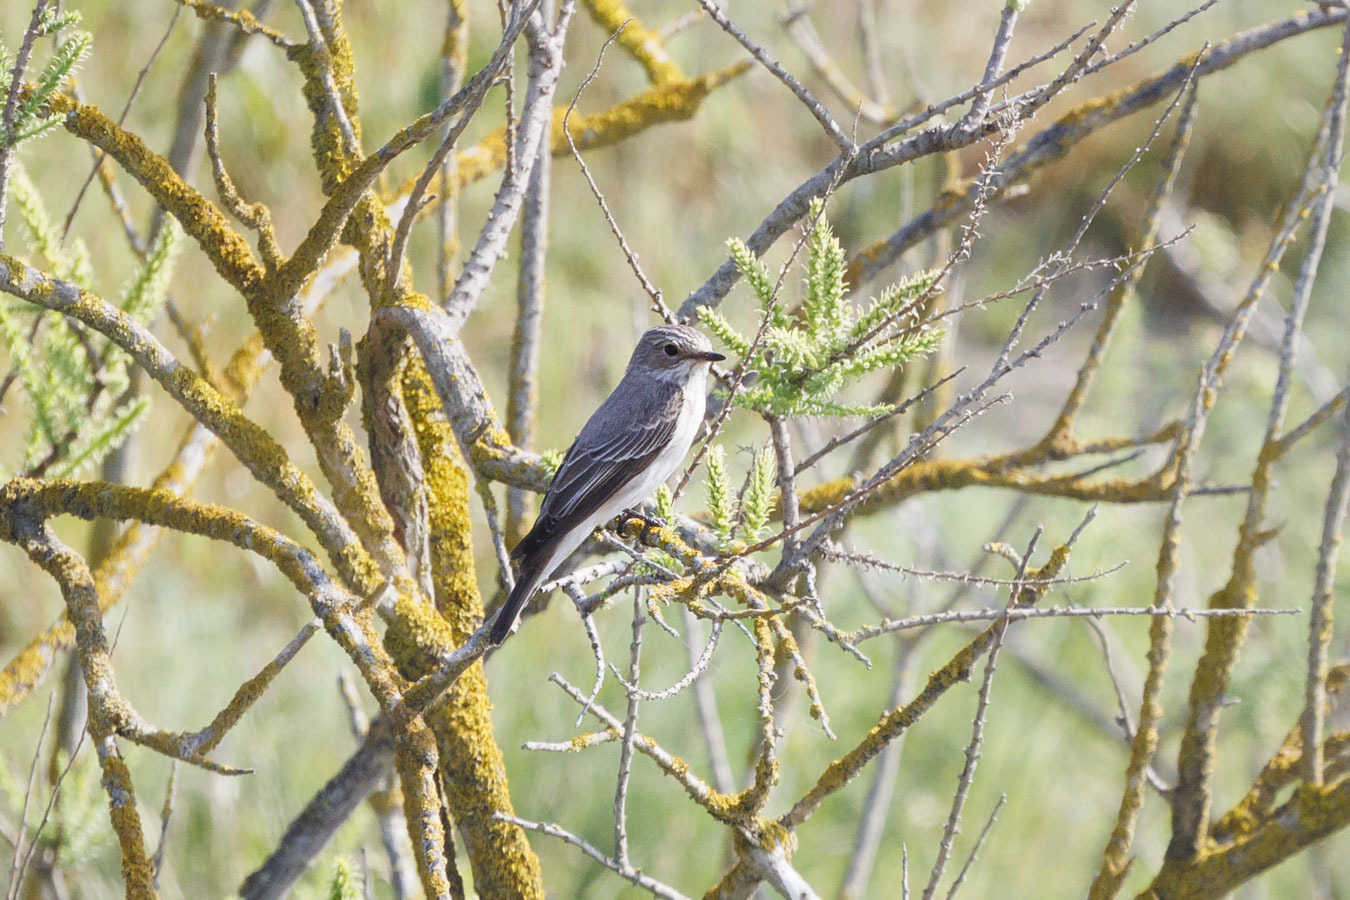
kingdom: Animalia
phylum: Chordata
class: Aves
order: Passeriformes
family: Muscicapidae
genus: Muscicapa
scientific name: Muscicapa striata
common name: Spotted flycatcher
